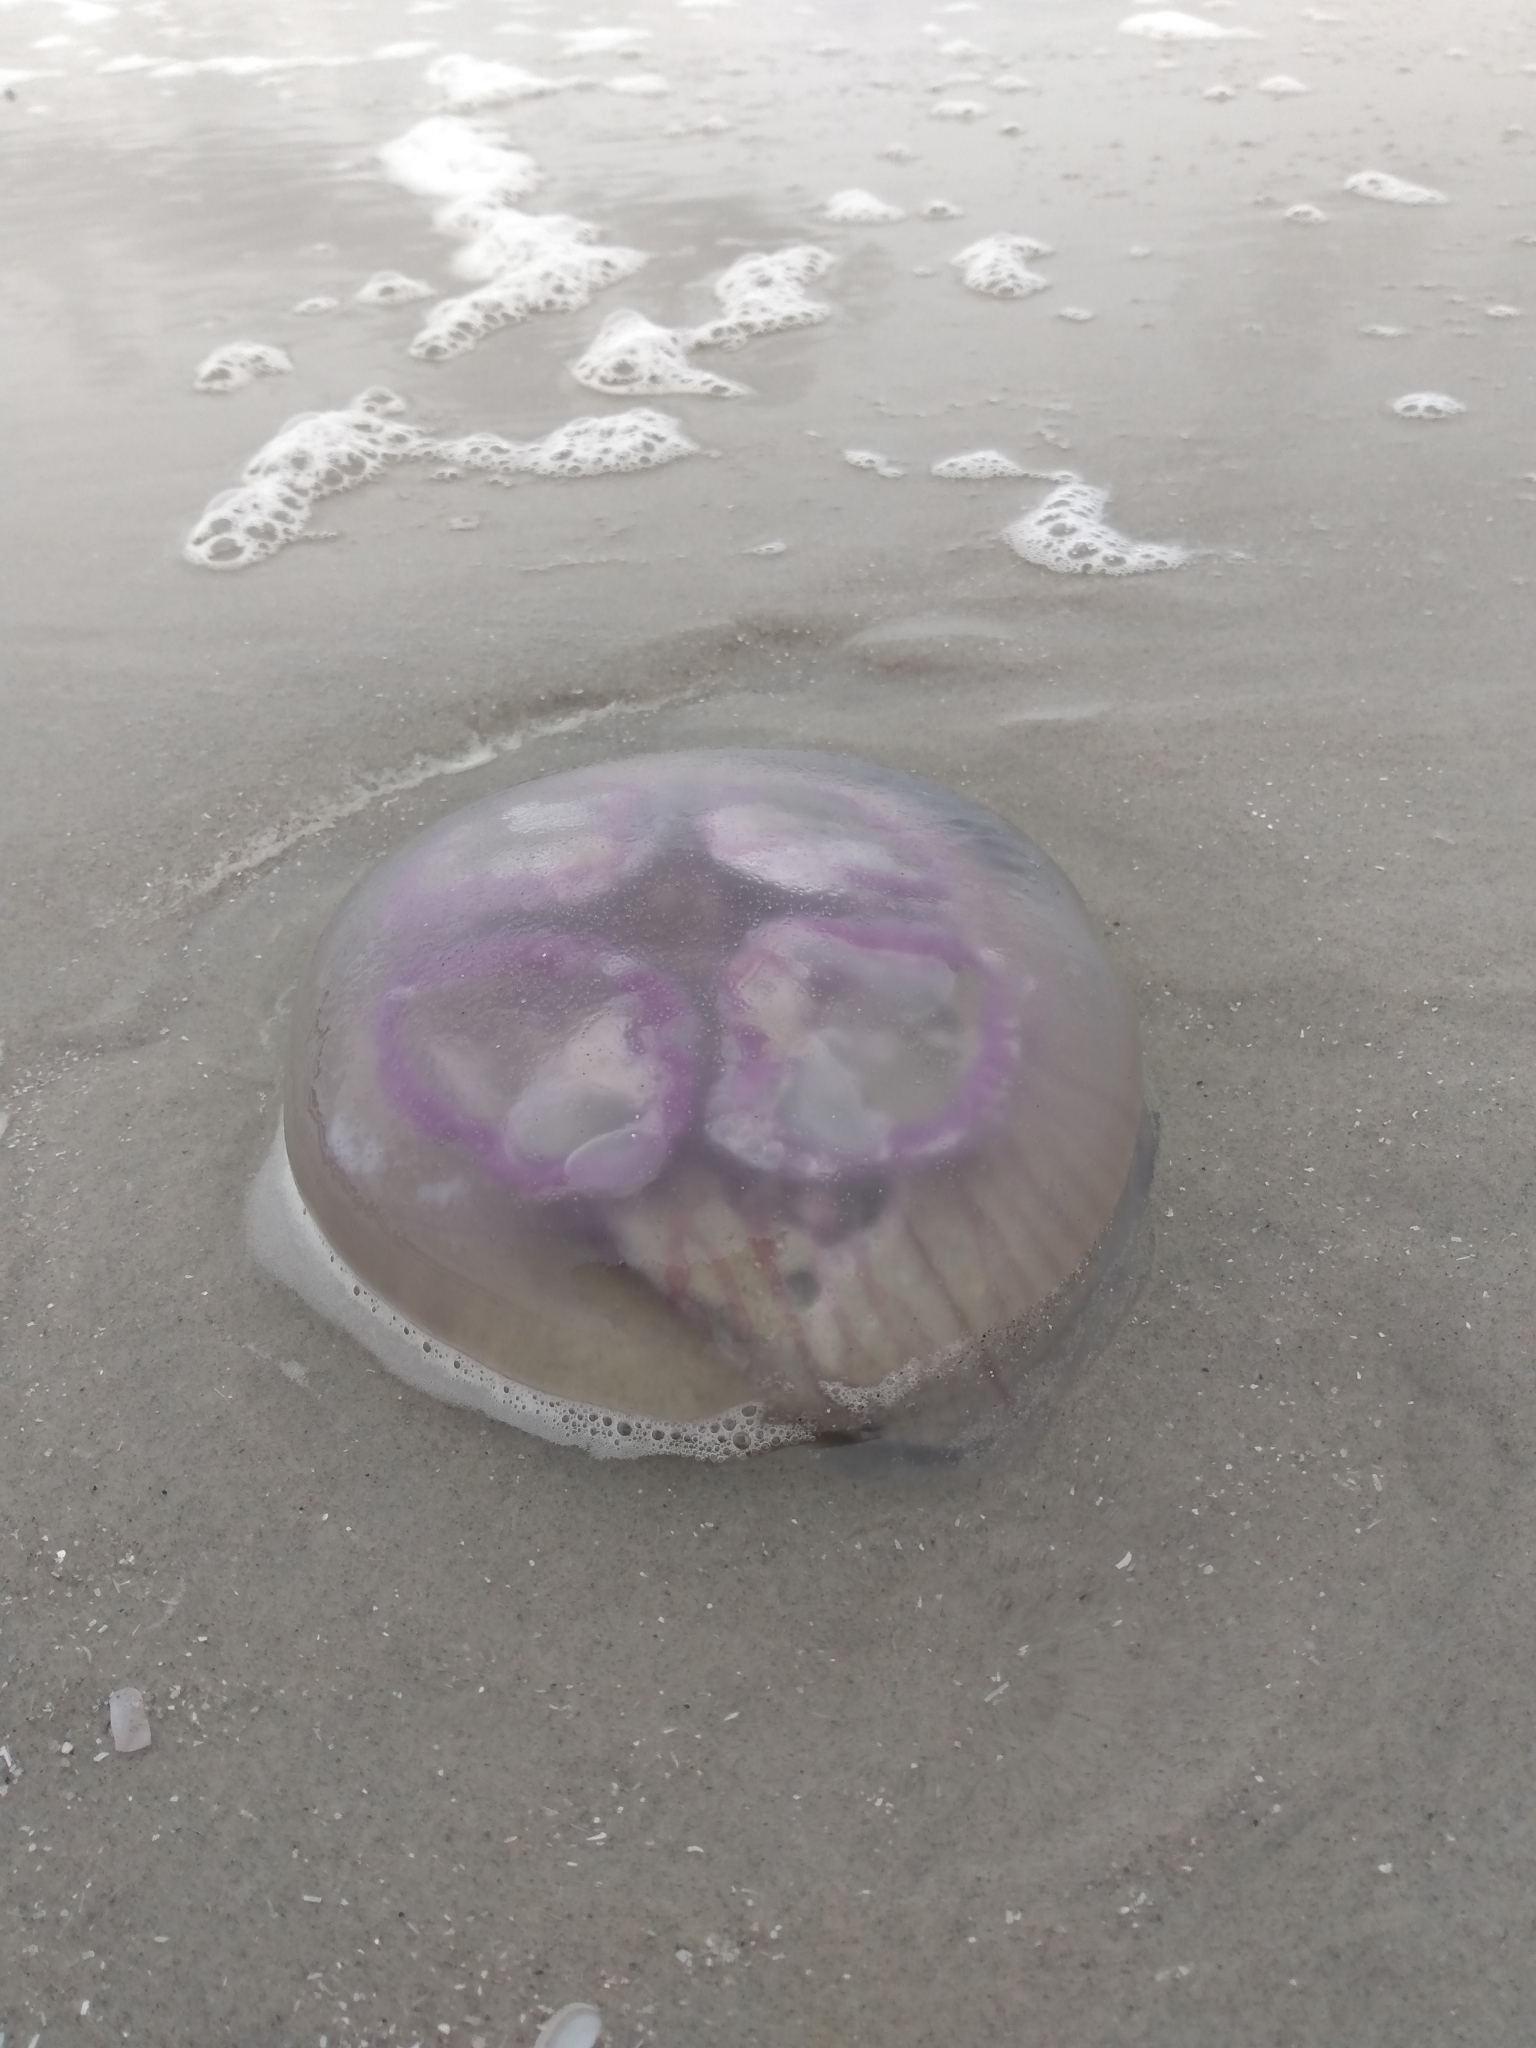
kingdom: Animalia
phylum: Cnidaria
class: Scyphozoa
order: Semaeostomeae
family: Ulmaridae
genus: Aurelia
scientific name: Aurelia aurita
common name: Moon jellyfish
